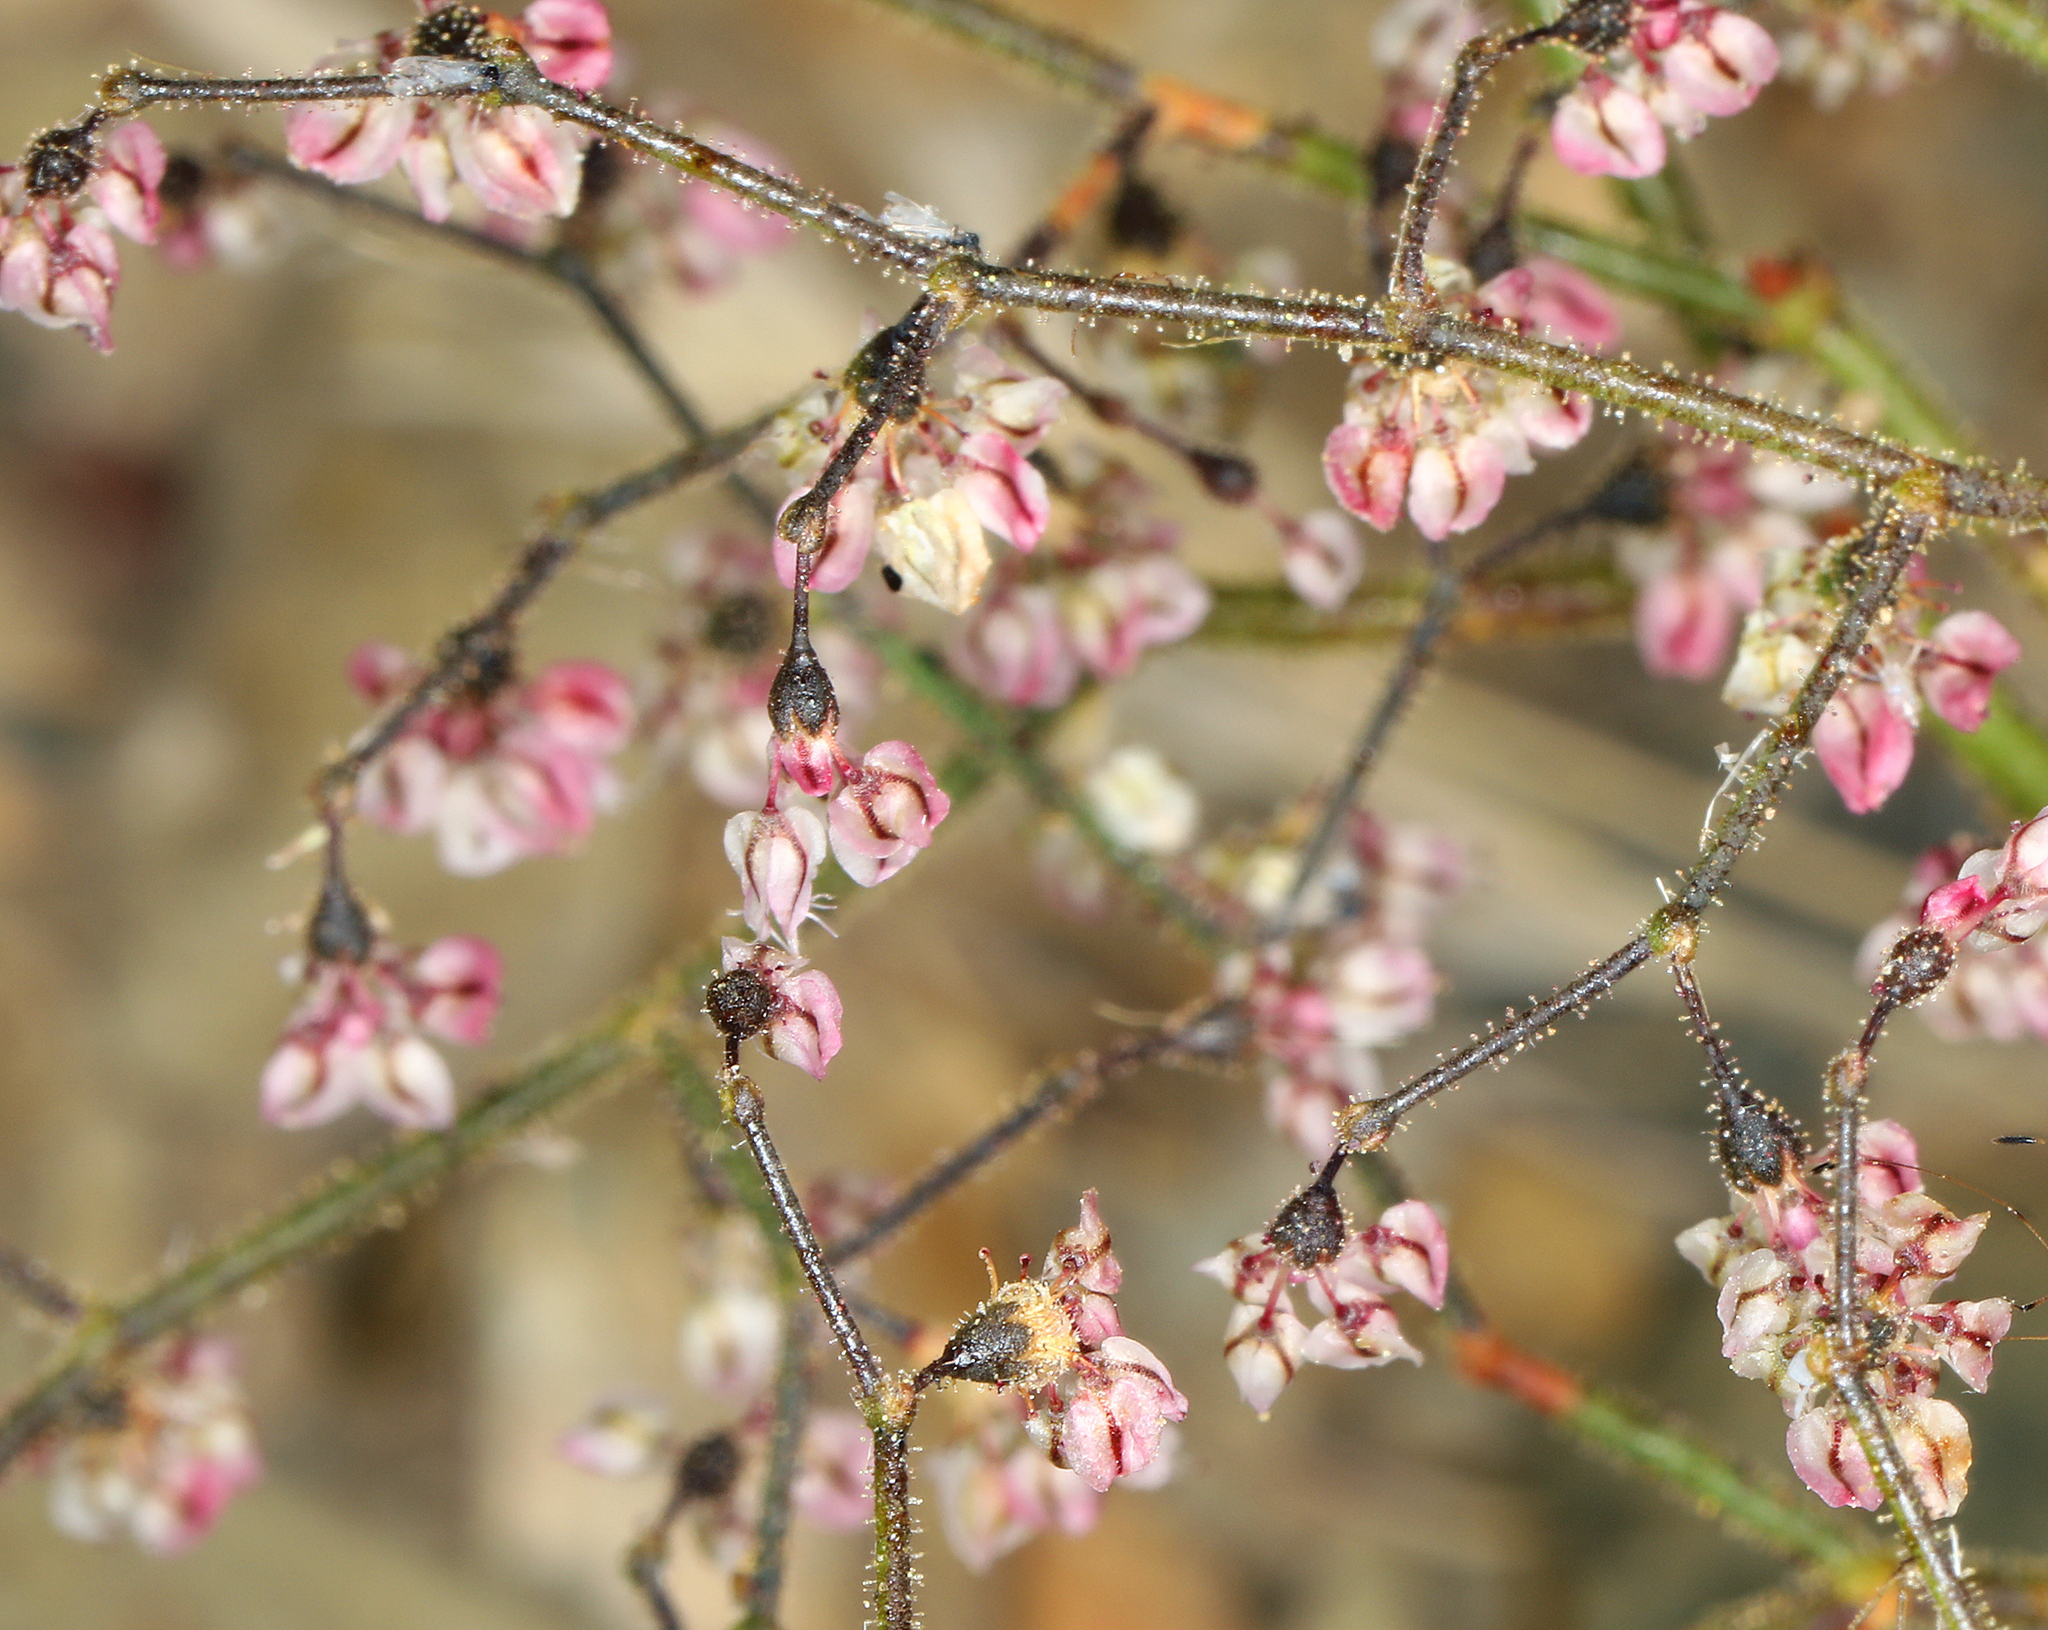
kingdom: Plantae
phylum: Tracheophyta
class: Magnoliopsida
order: Caryophyllales
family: Polygonaceae
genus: Eriogonum
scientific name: Eriogonum brachypodum
